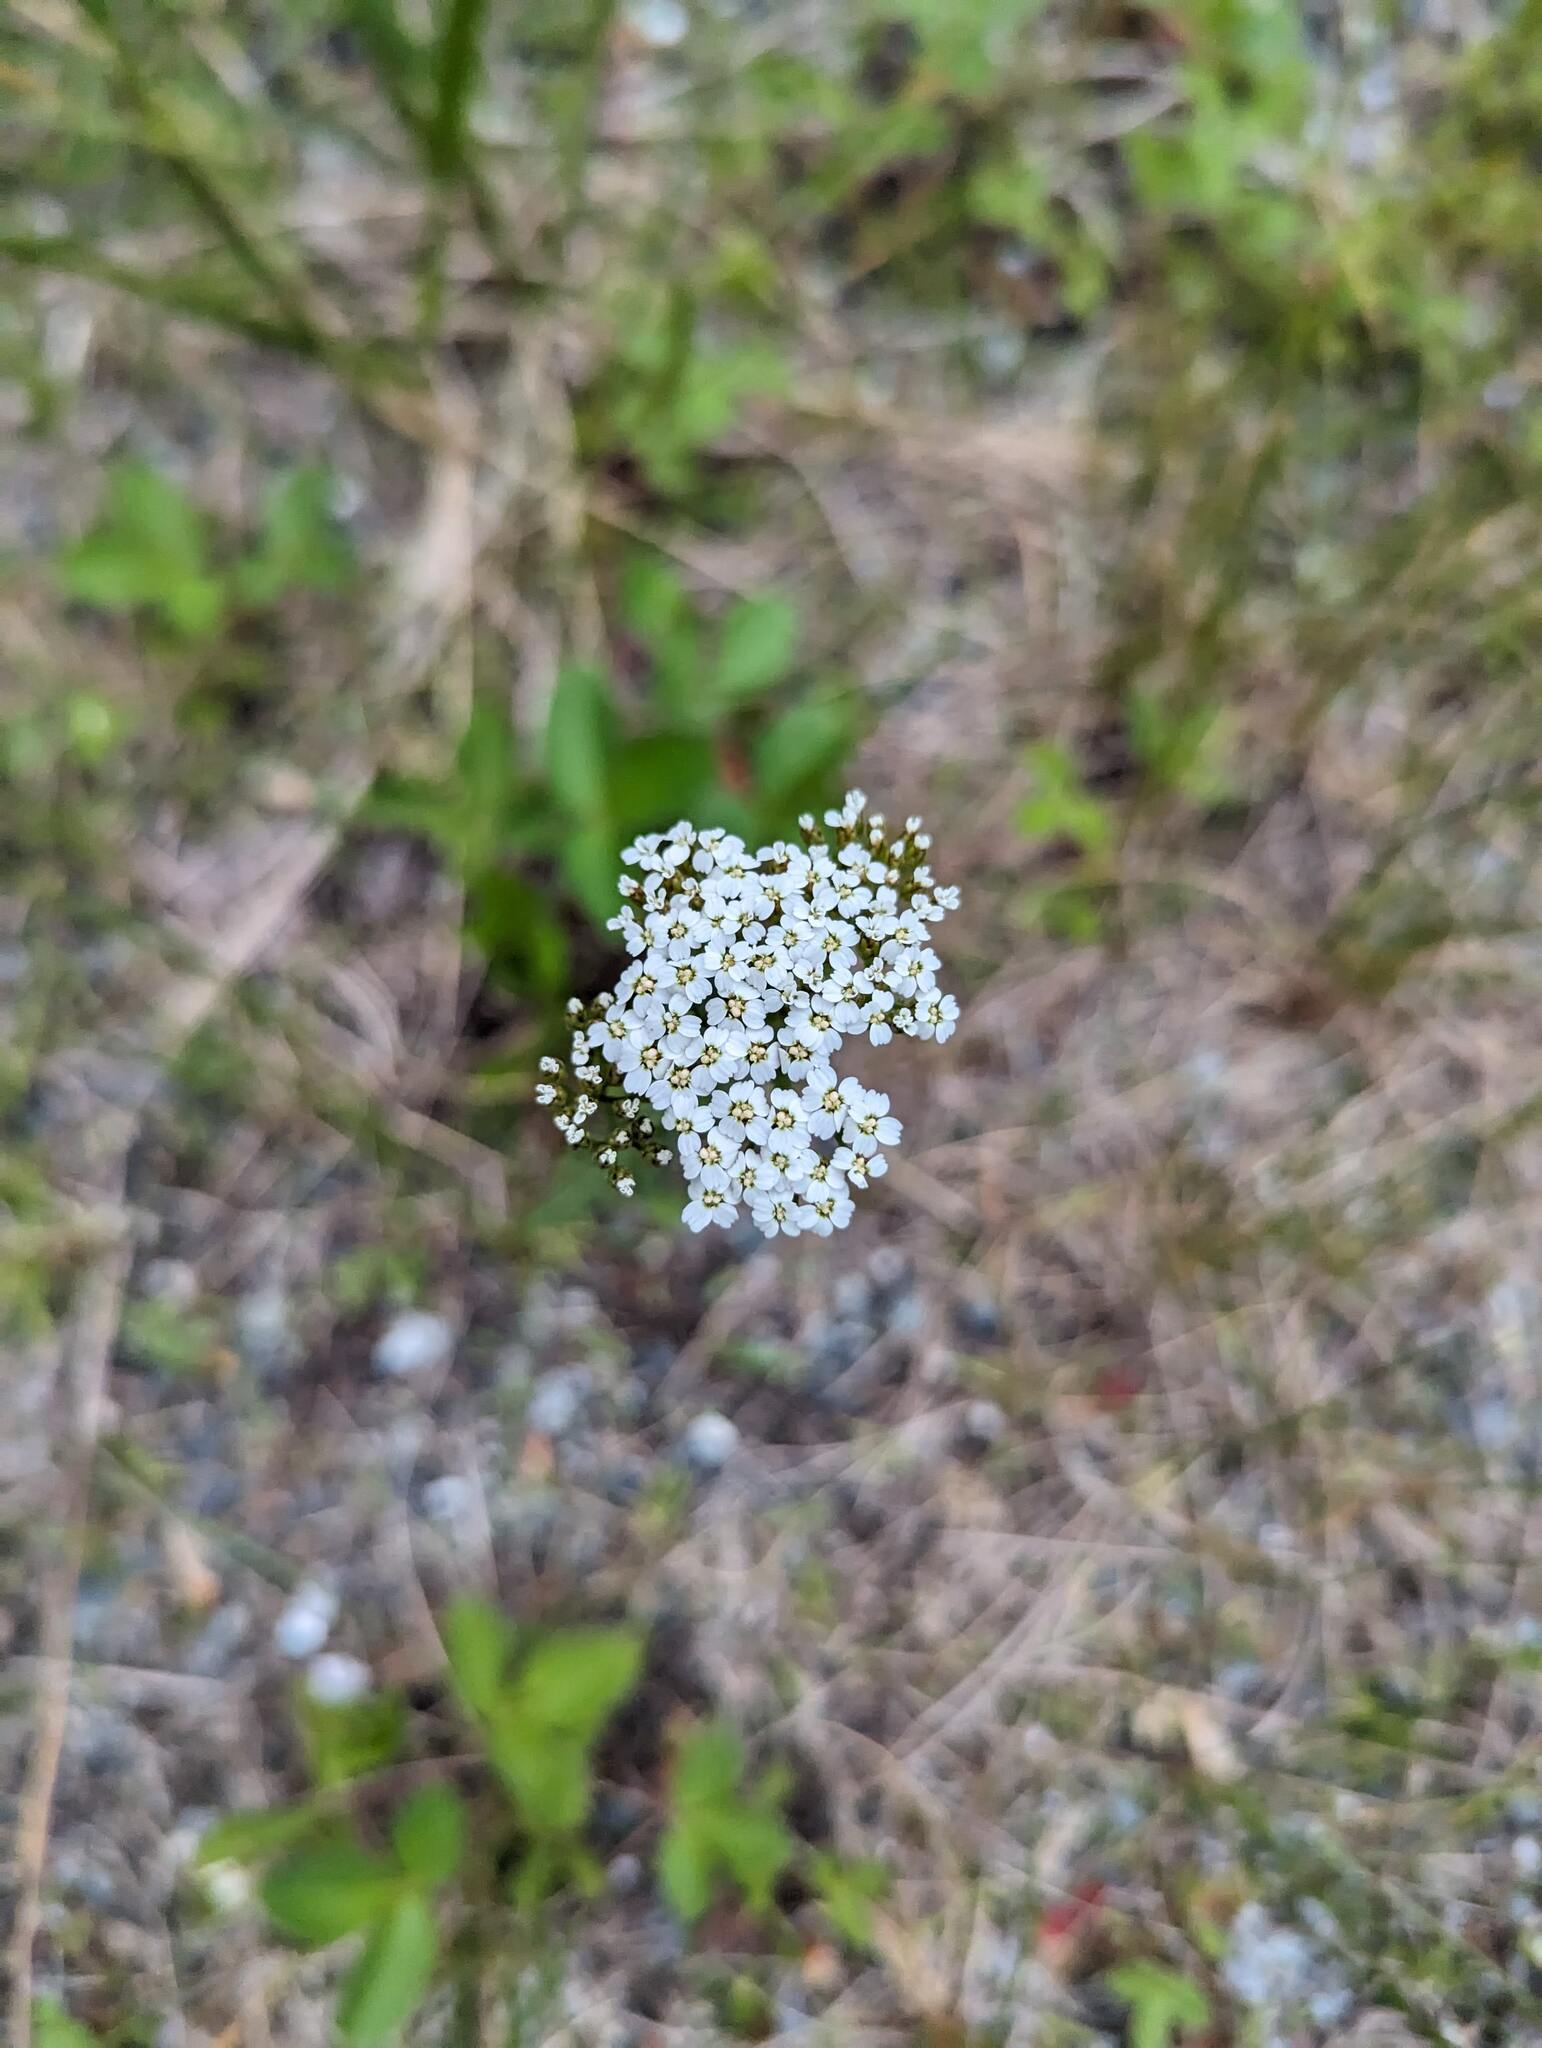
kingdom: Plantae
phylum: Tracheophyta
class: Magnoliopsida
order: Asterales
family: Asteraceae
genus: Achillea
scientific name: Achillea millefolium
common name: Yarrow
